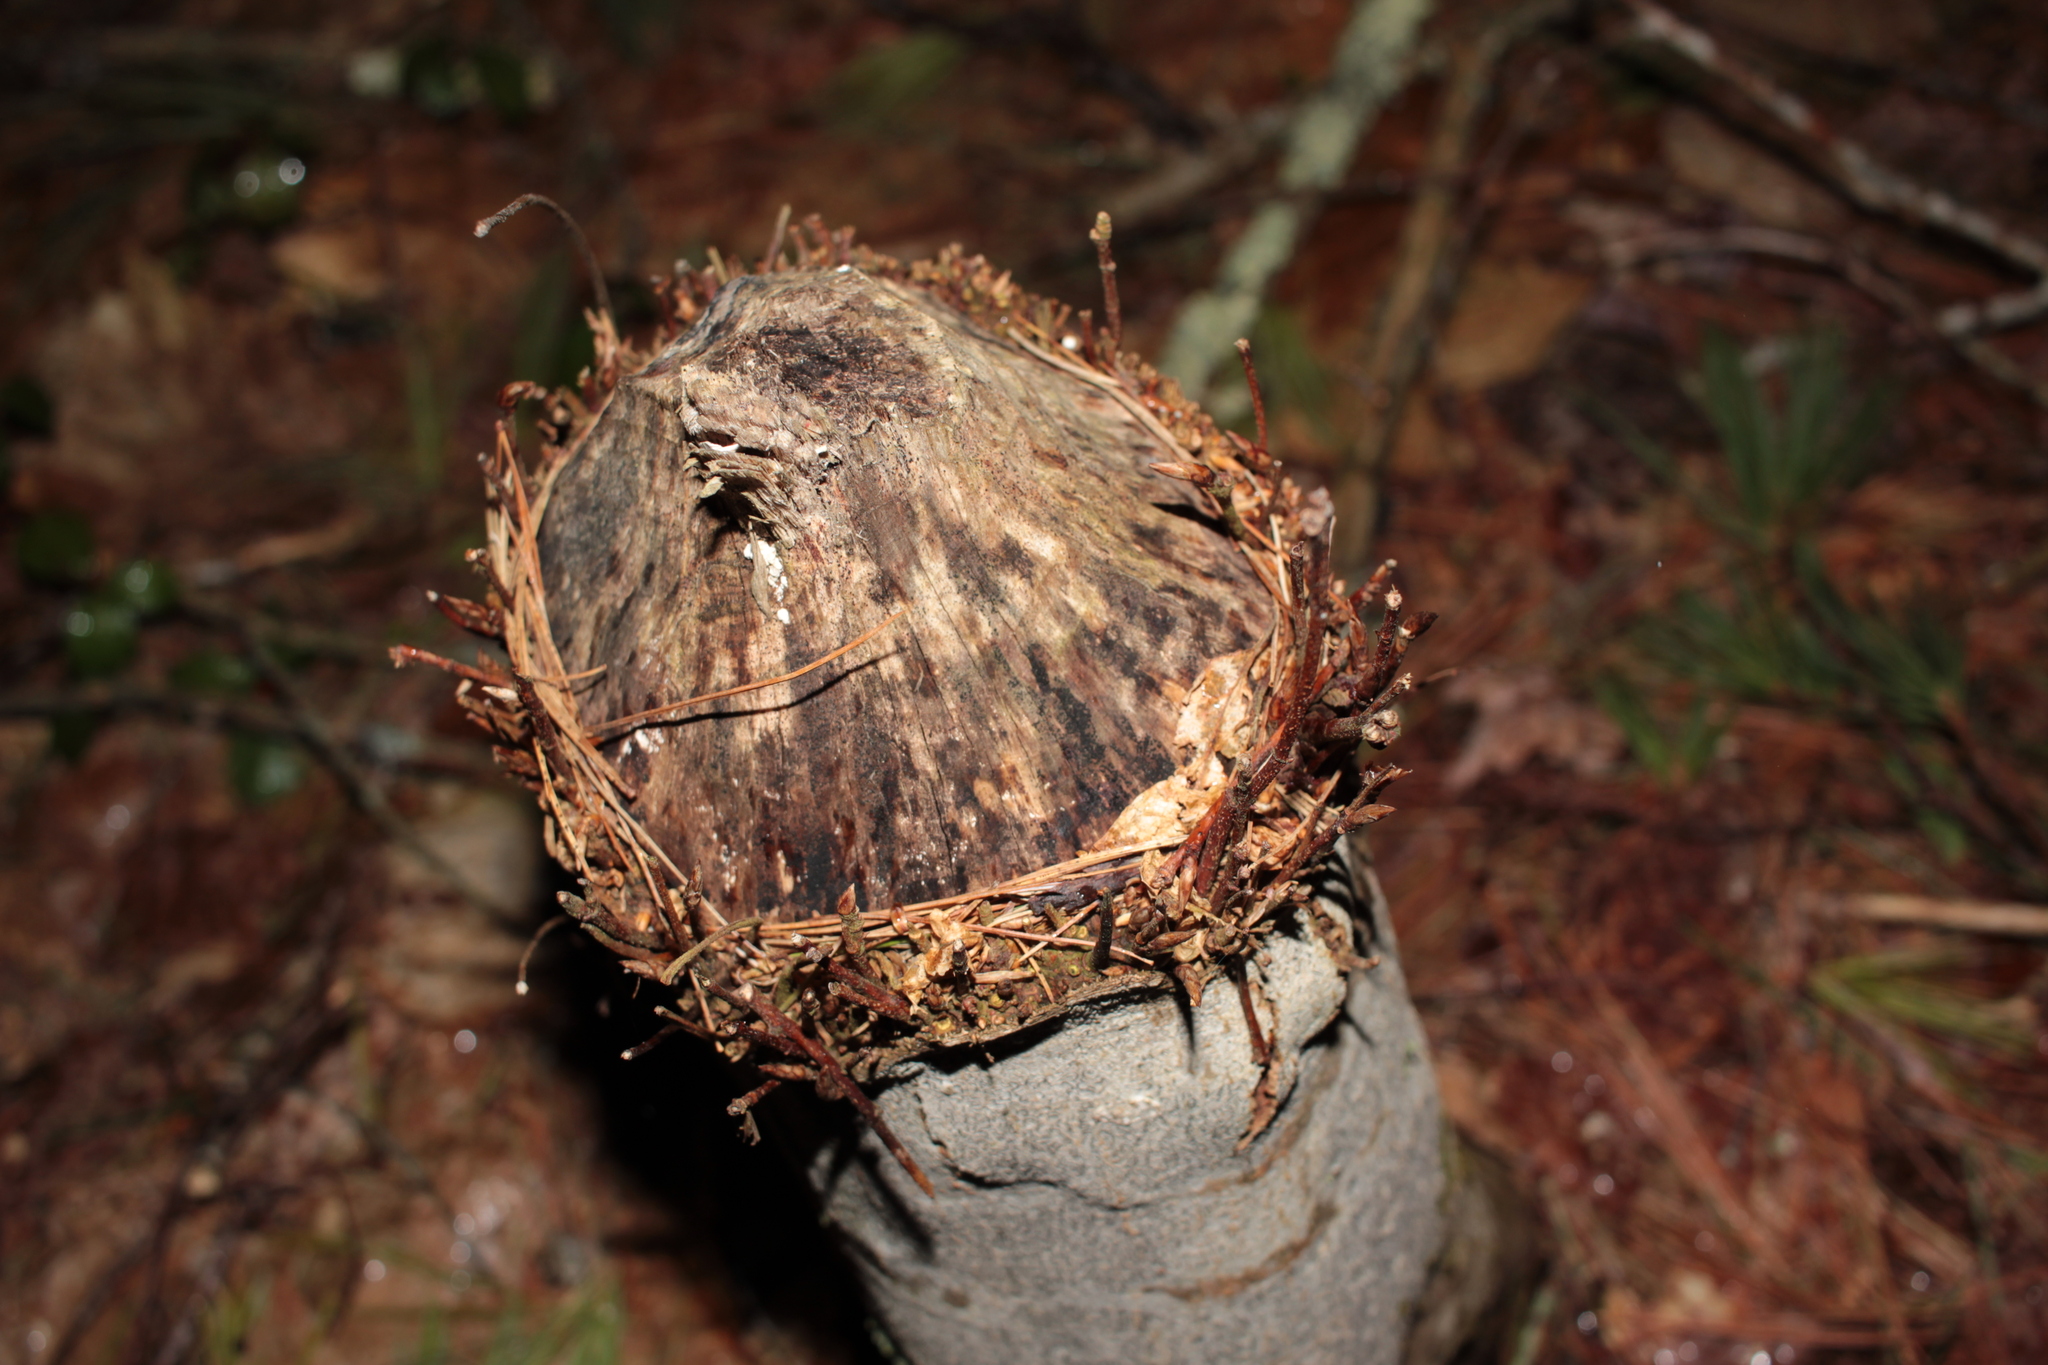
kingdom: Animalia
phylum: Chordata
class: Mammalia
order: Rodentia
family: Castoridae
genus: Castor
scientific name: Castor canadensis
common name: American beaver
